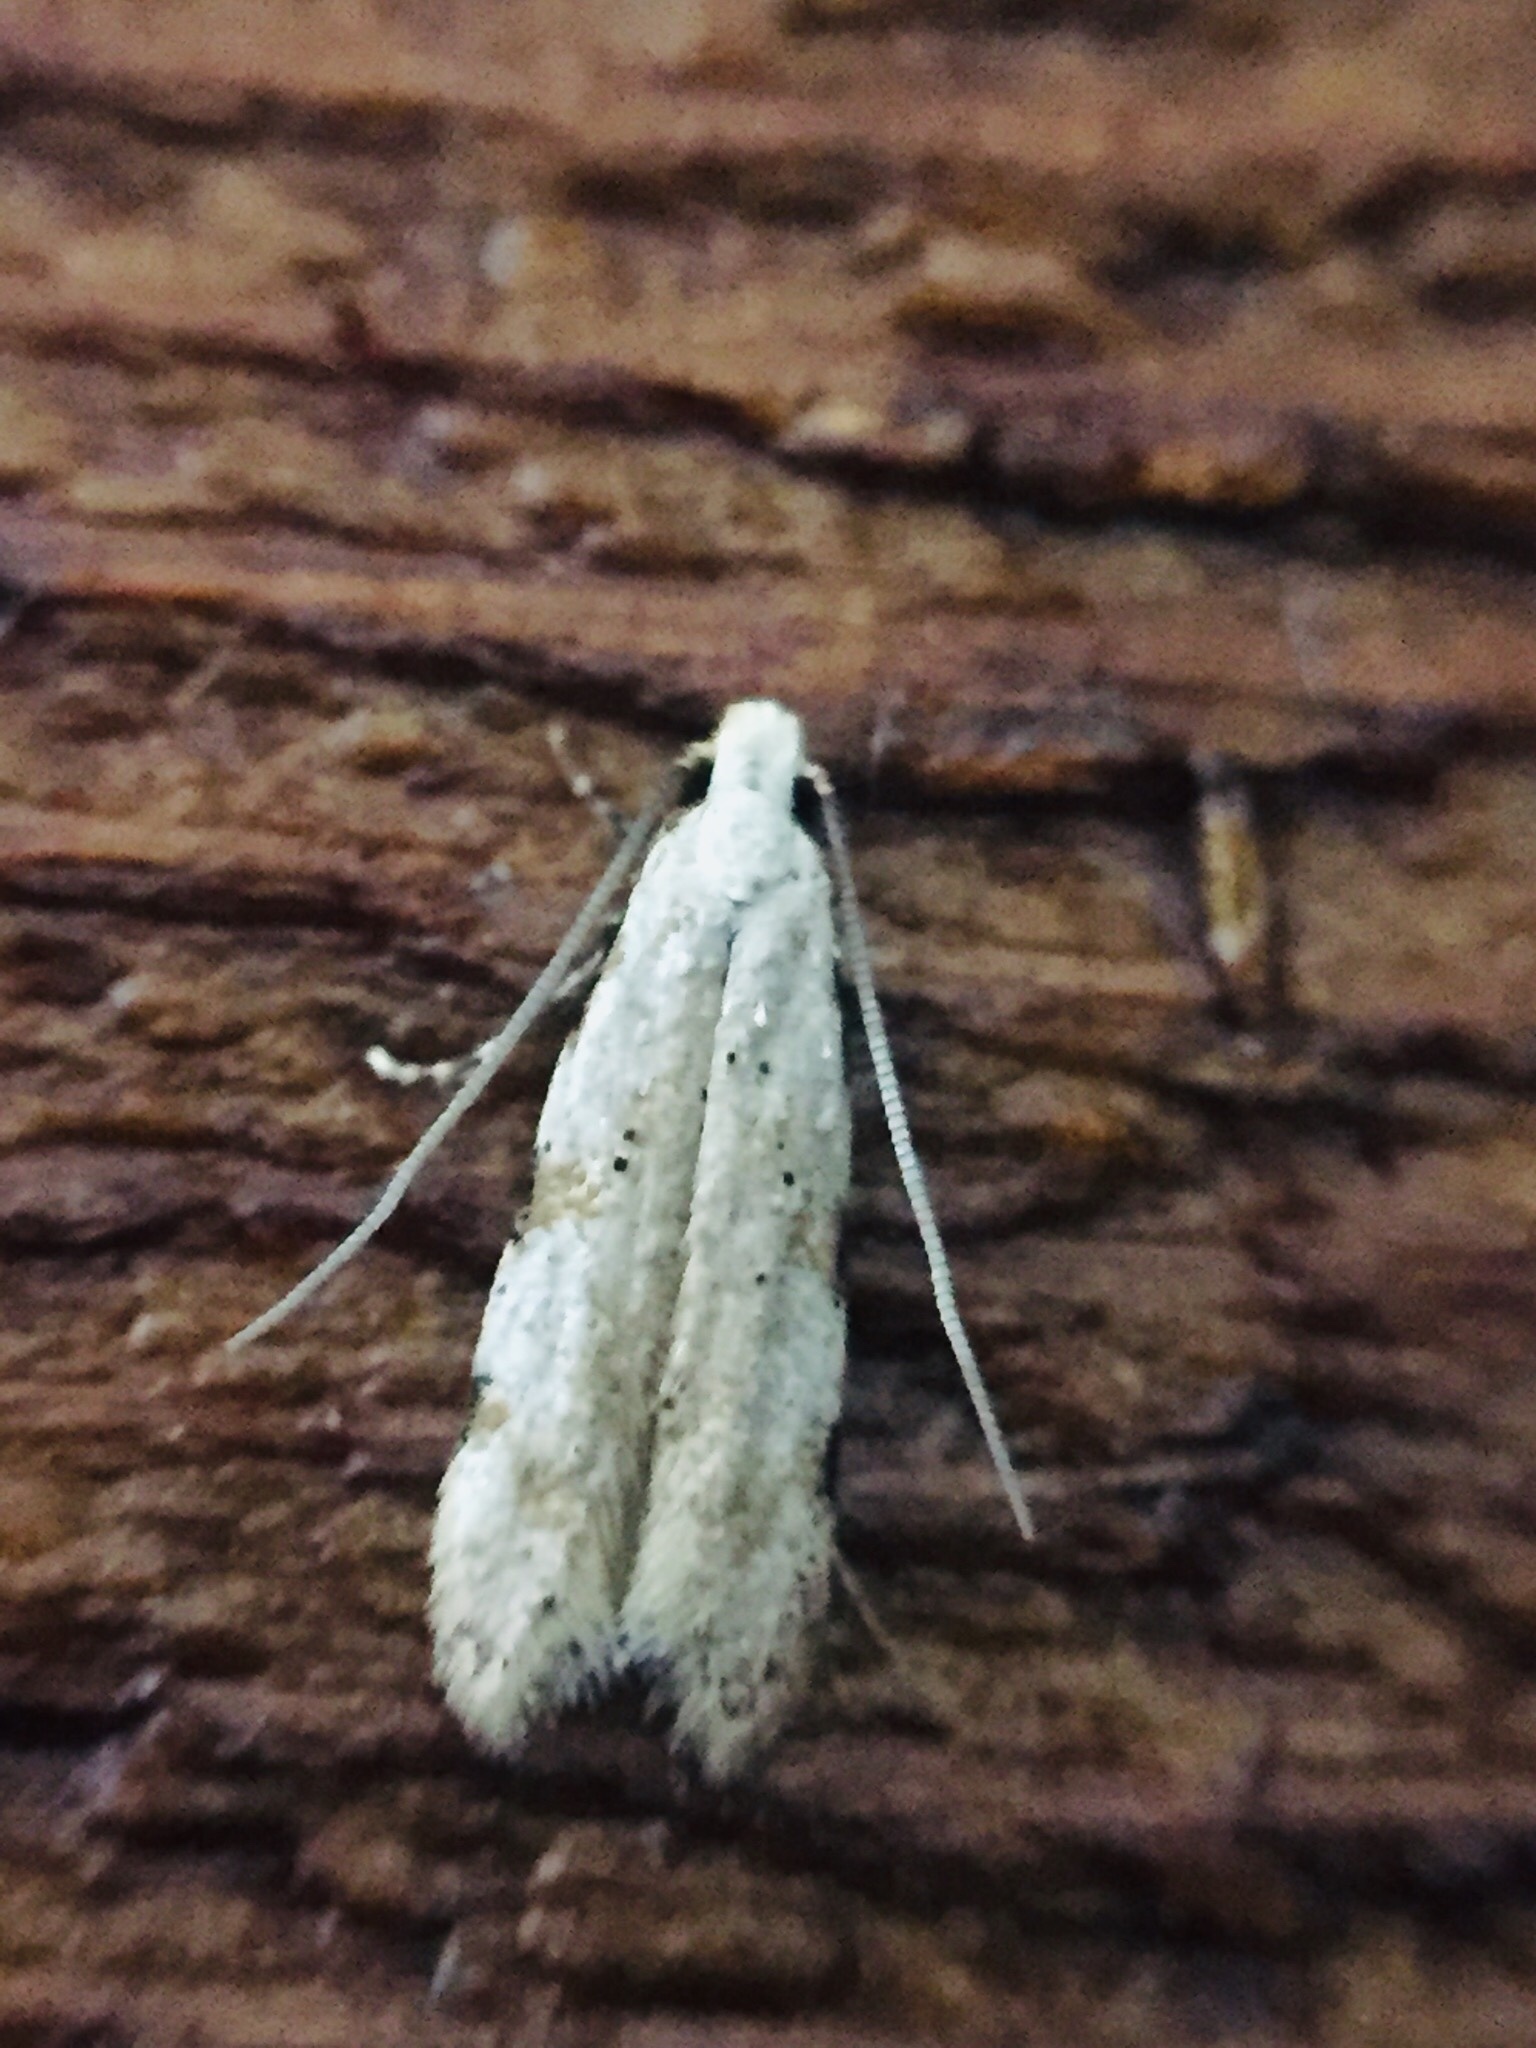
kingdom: Animalia
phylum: Arthropoda
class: Insecta
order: Lepidoptera
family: Tineidae
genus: Endophthora
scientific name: Endophthora omogramma
